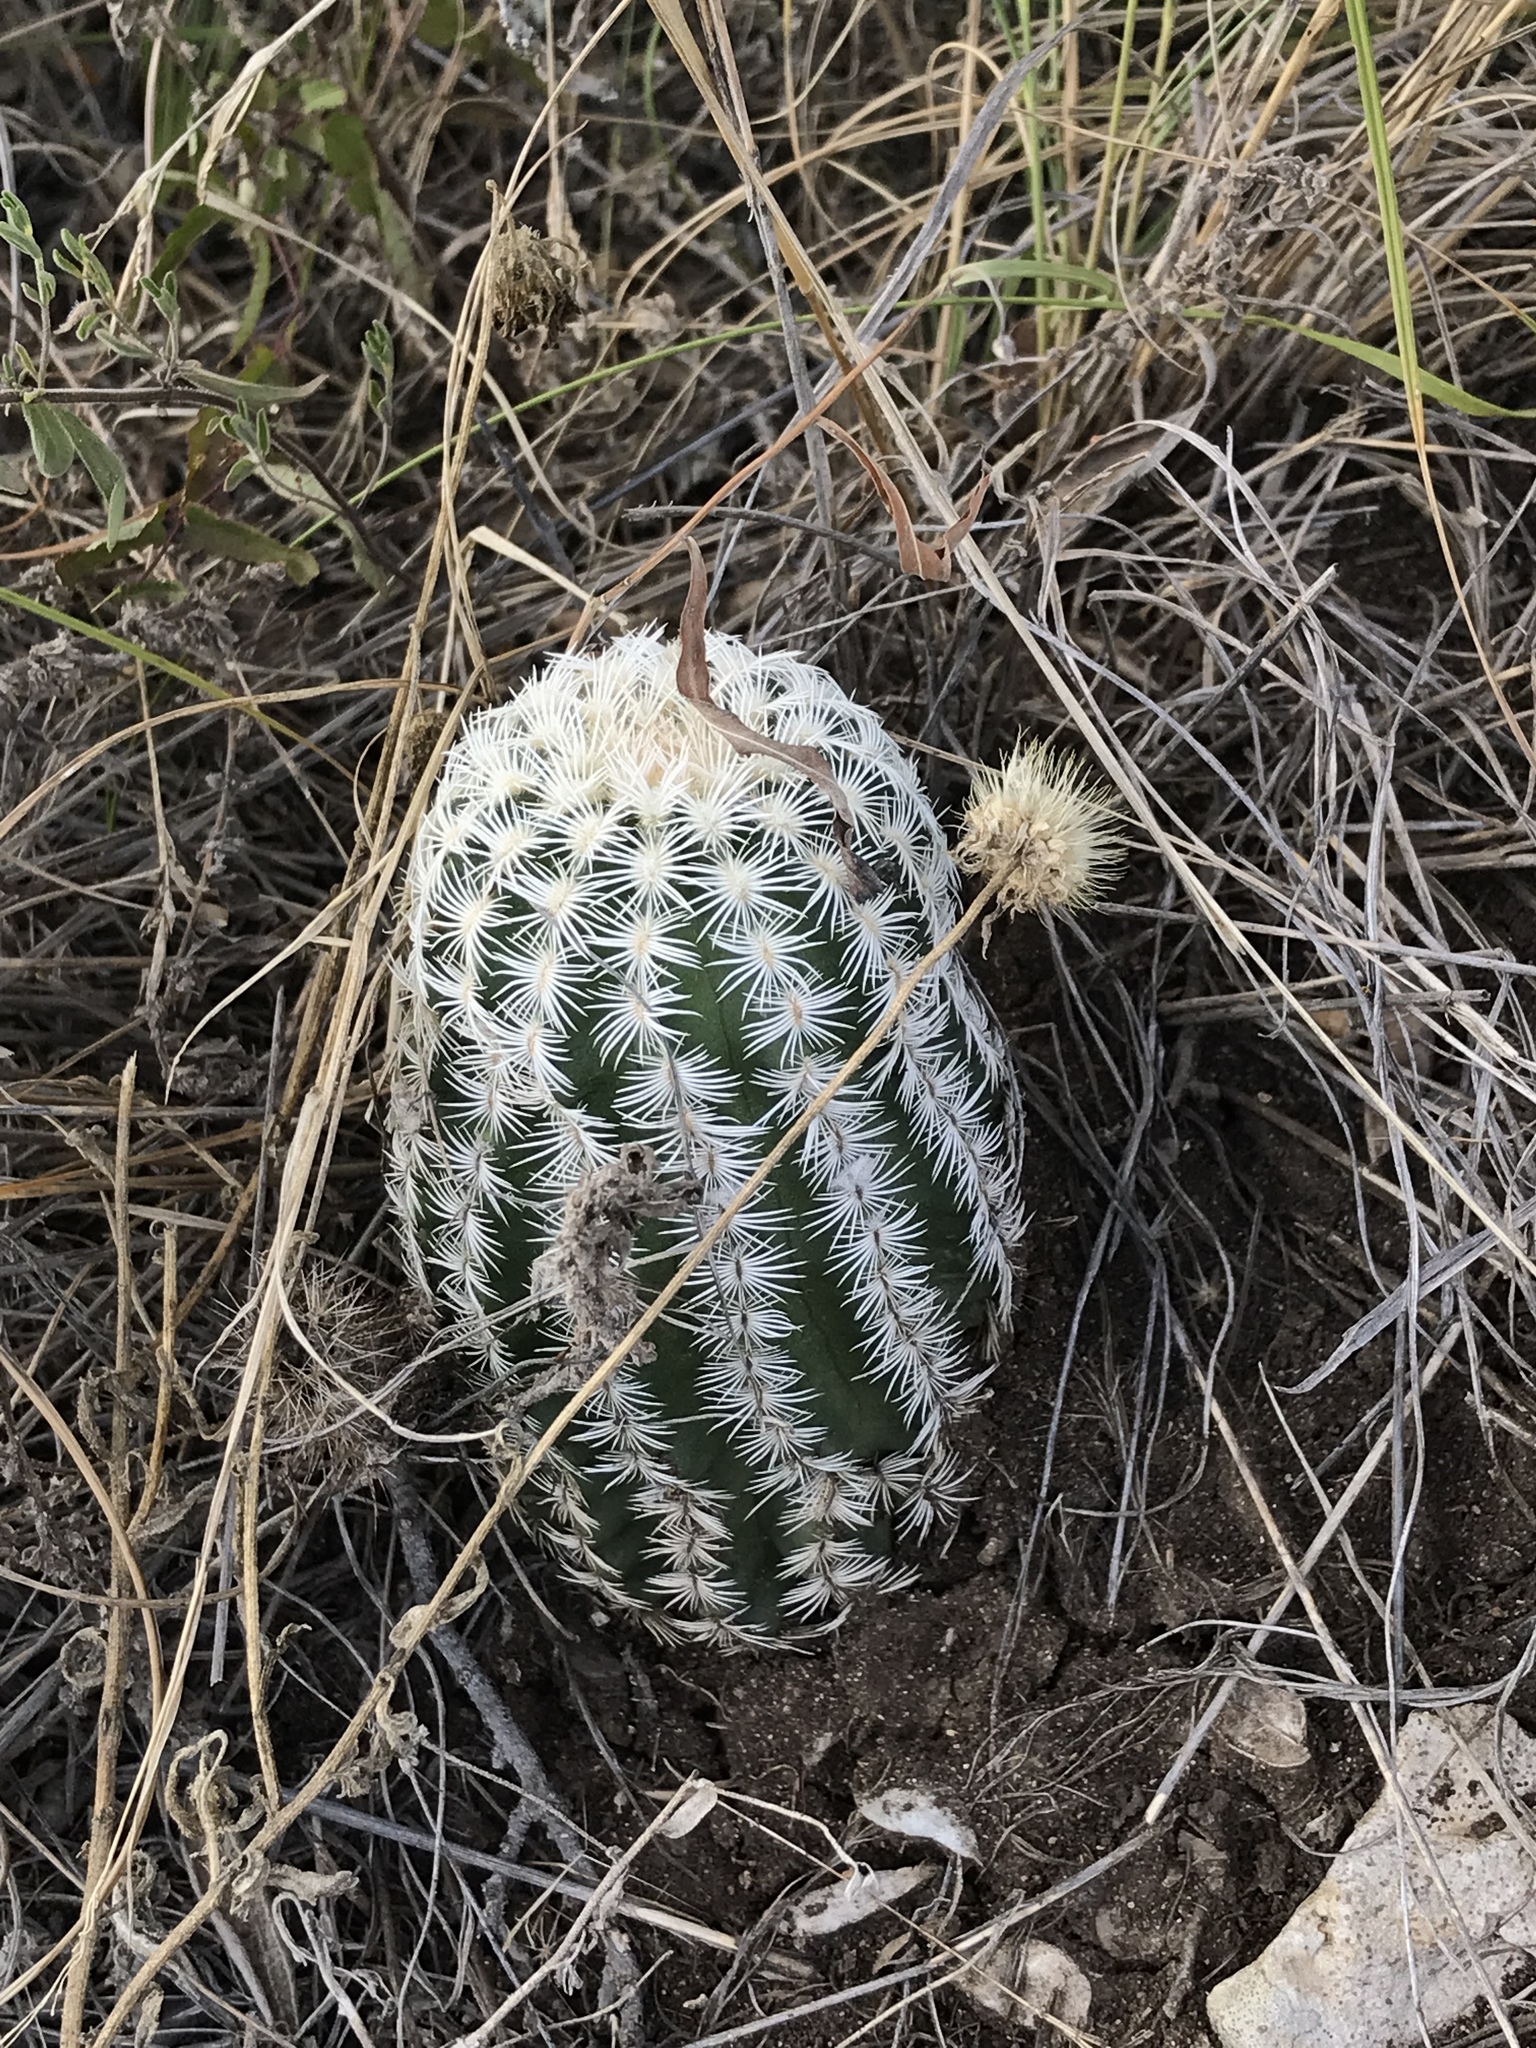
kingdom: Plantae
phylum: Tracheophyta
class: Magnoliopsida
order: Caryophyllales
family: Cactaceae
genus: Echinocereus
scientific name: Echinocereus reichenbachii
